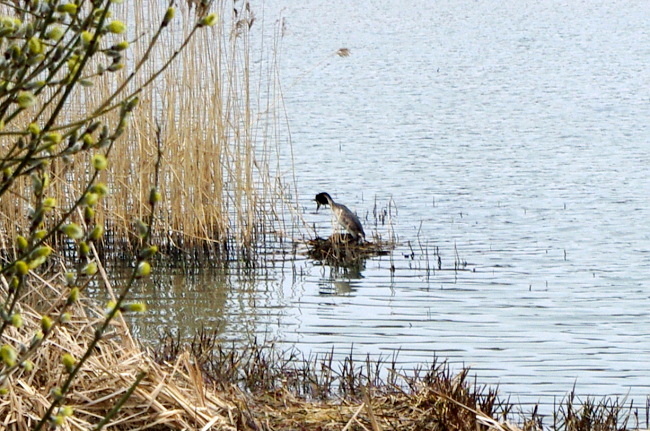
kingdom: Animalia
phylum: Chordata
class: Aves
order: Podicipediformes
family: Podicipedidae
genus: Podiceps
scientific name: Podiceps cristatus
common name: Great crested grebe
